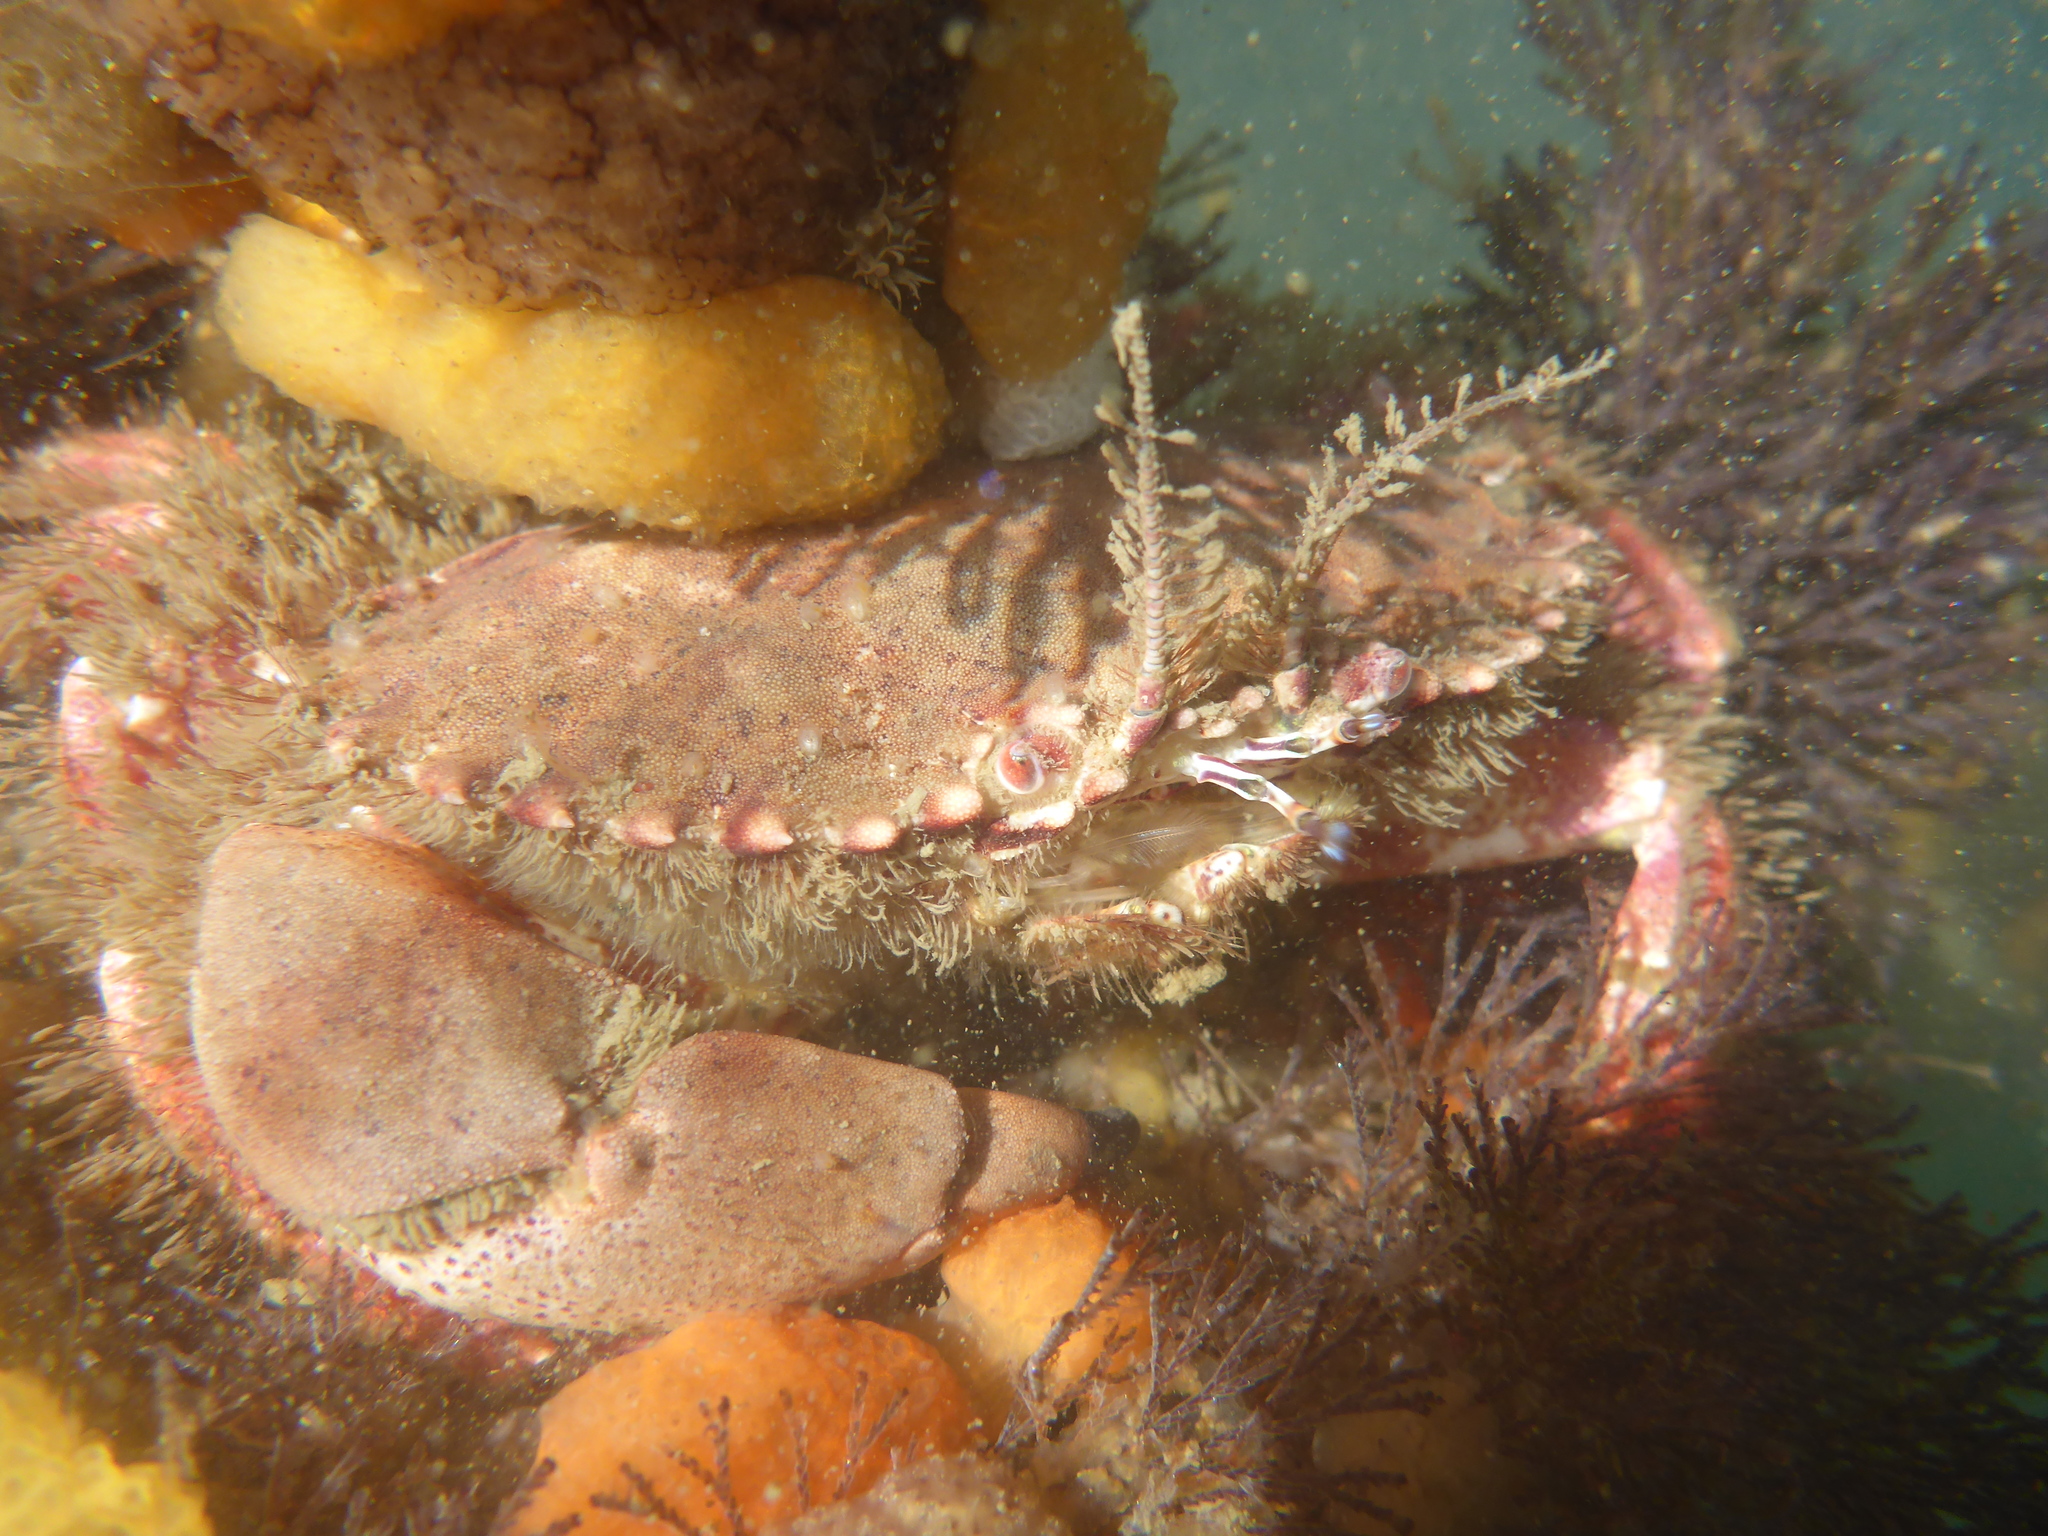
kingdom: Animalia
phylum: Arthropoda
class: Malacostraca
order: Decapoda
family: Cancridae
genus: Romaleon
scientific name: Romaleon antennarium
